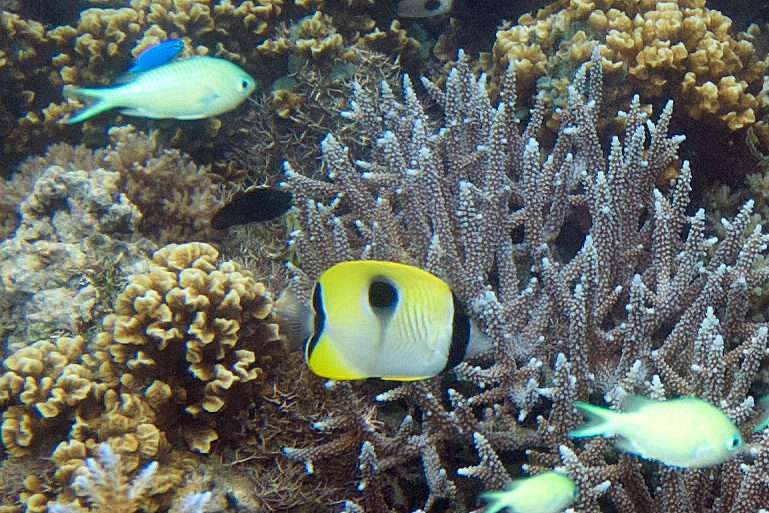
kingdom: Animalia
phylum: Chordata
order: Perciformes
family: Chaetodontidae
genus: Chaetodon
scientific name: Chaetodon unimaculatus
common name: Teardrop butterflyfish
